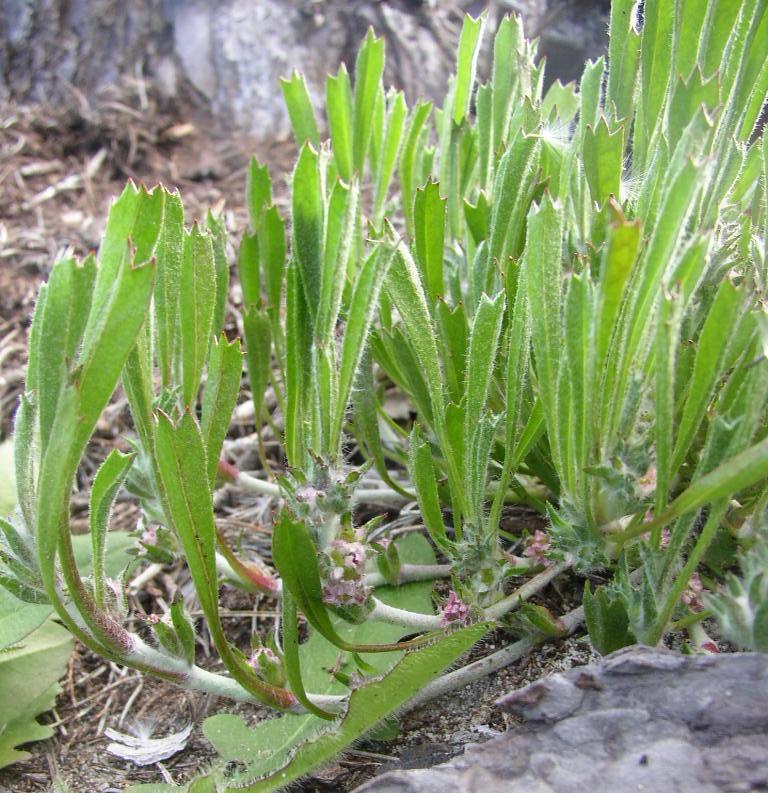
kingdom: Plantae
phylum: Tracheophyta
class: Magnoliopsida
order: Apiales
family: Apiaceae
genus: Centella
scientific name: Centella tridentata
